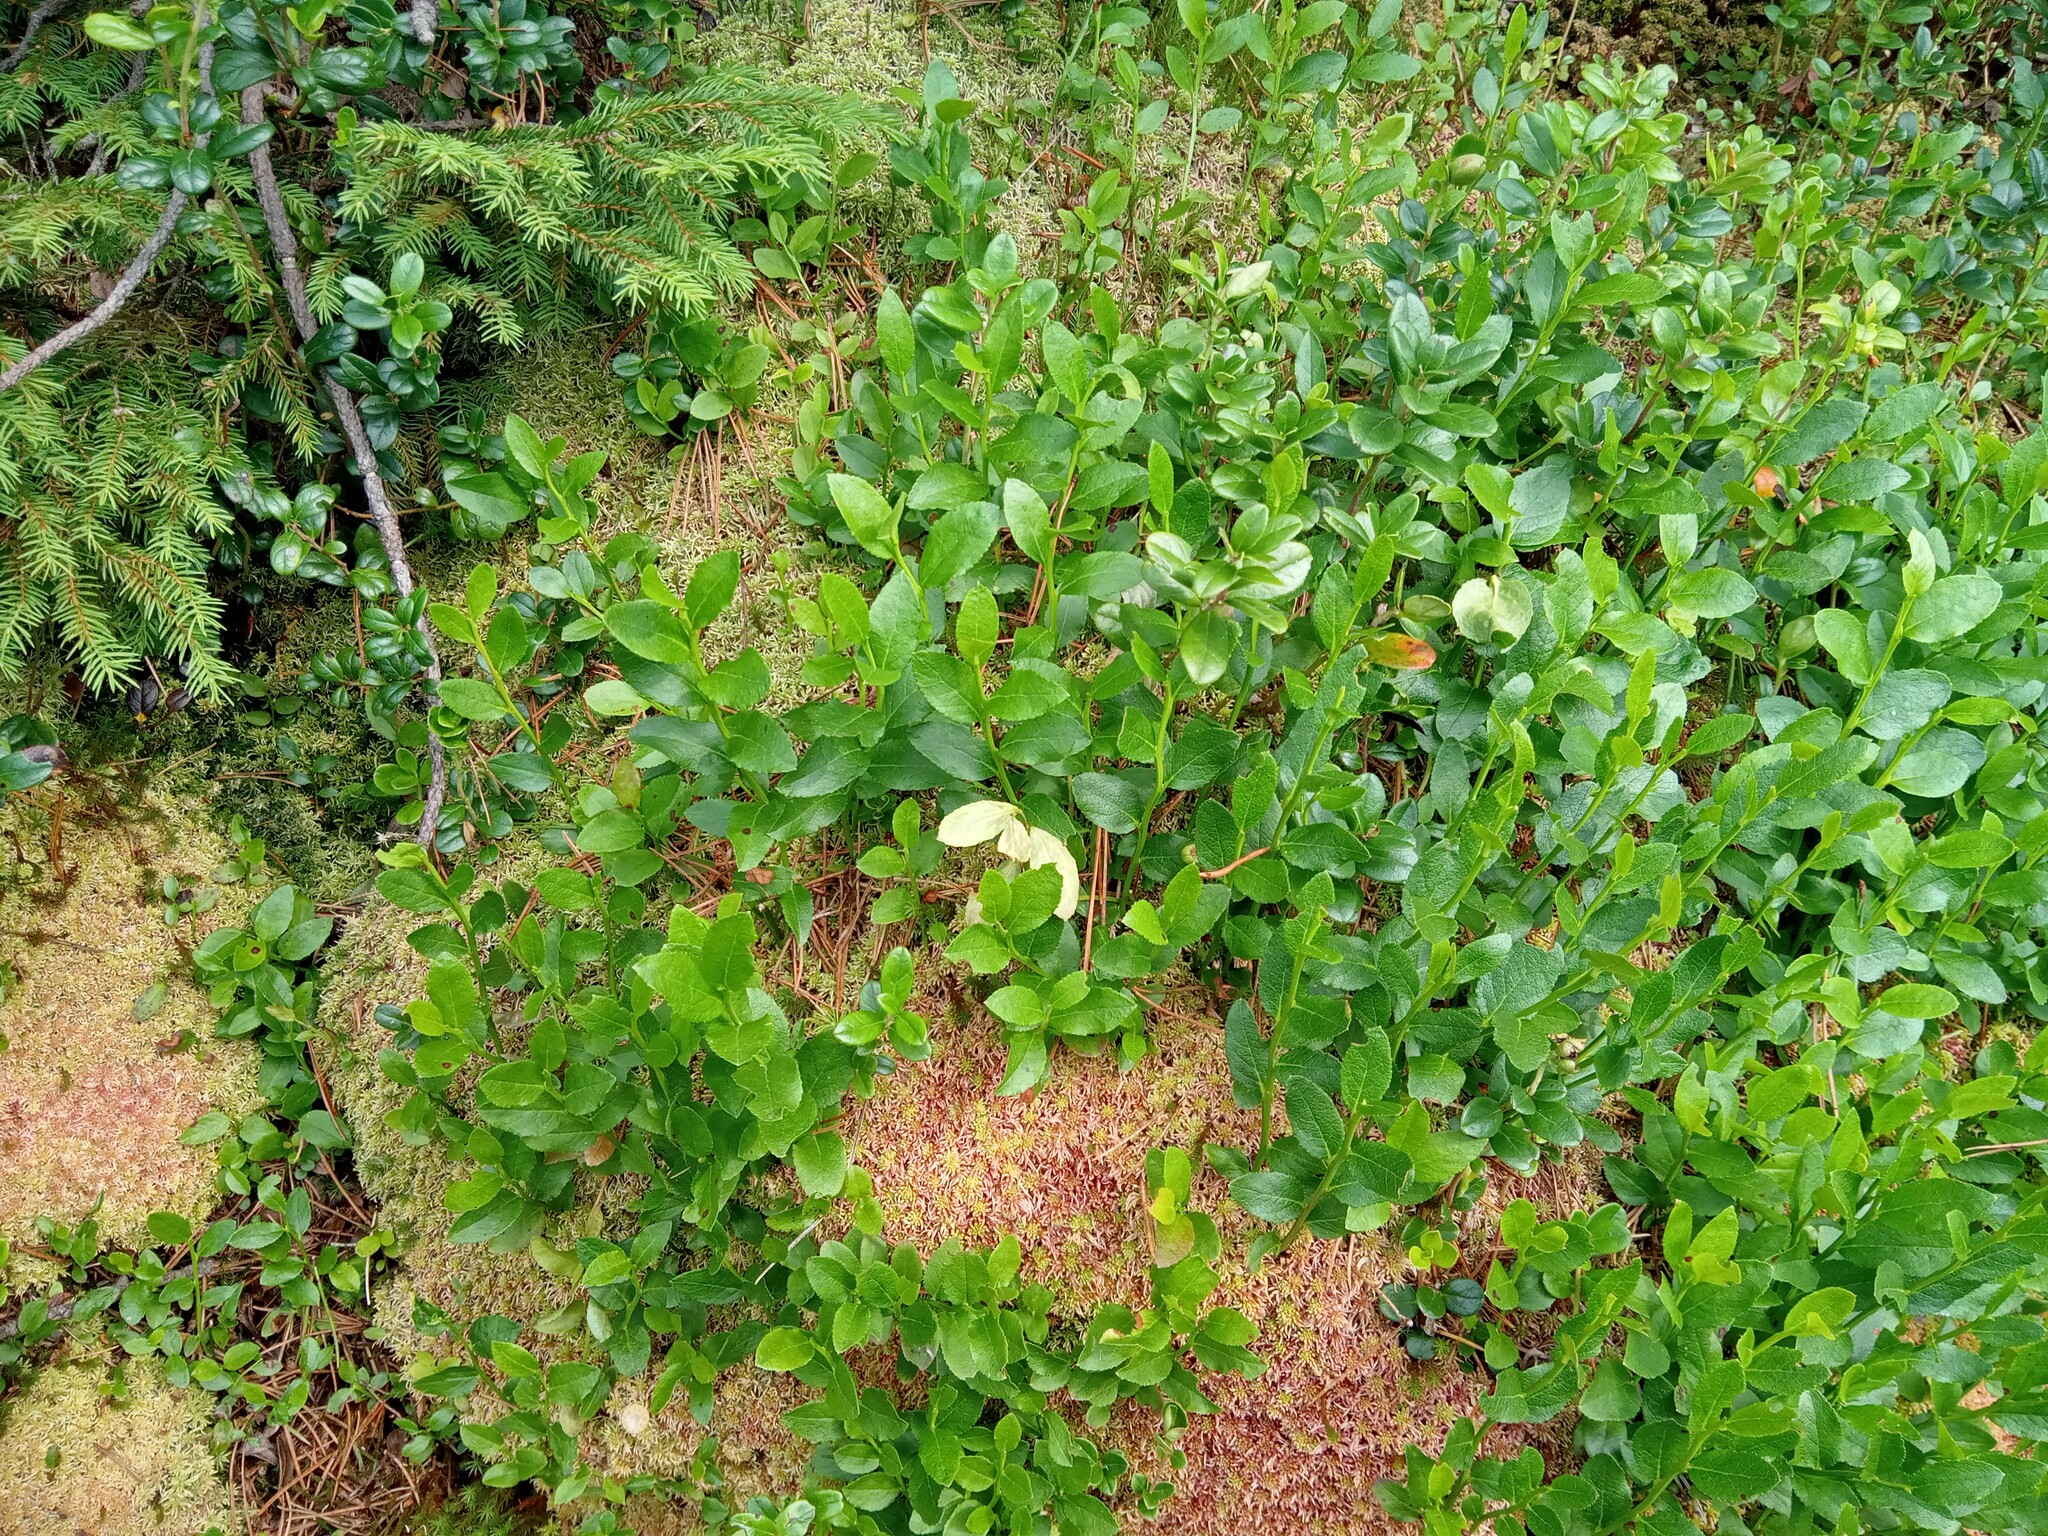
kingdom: Plantae
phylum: Tracheophyta
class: Magnoliopsida
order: Ericales
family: Ericaceae
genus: Vaccinium
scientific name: Vaccinium myrtillus
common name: Bilberry
